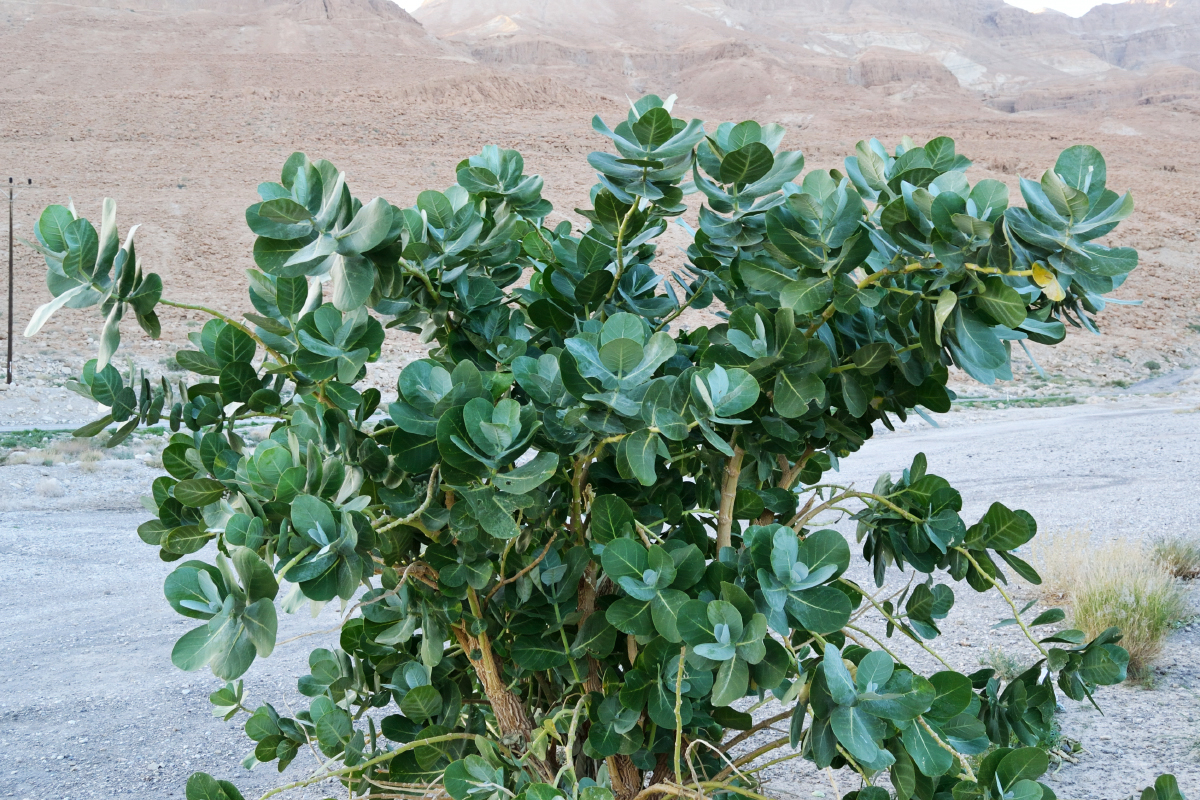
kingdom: Plantae
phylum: Tracheophyta
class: Magnoliopsida
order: Gentianales
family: Apocynaceae
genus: Calotropis
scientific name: Calotropis procera
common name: Roostertree
